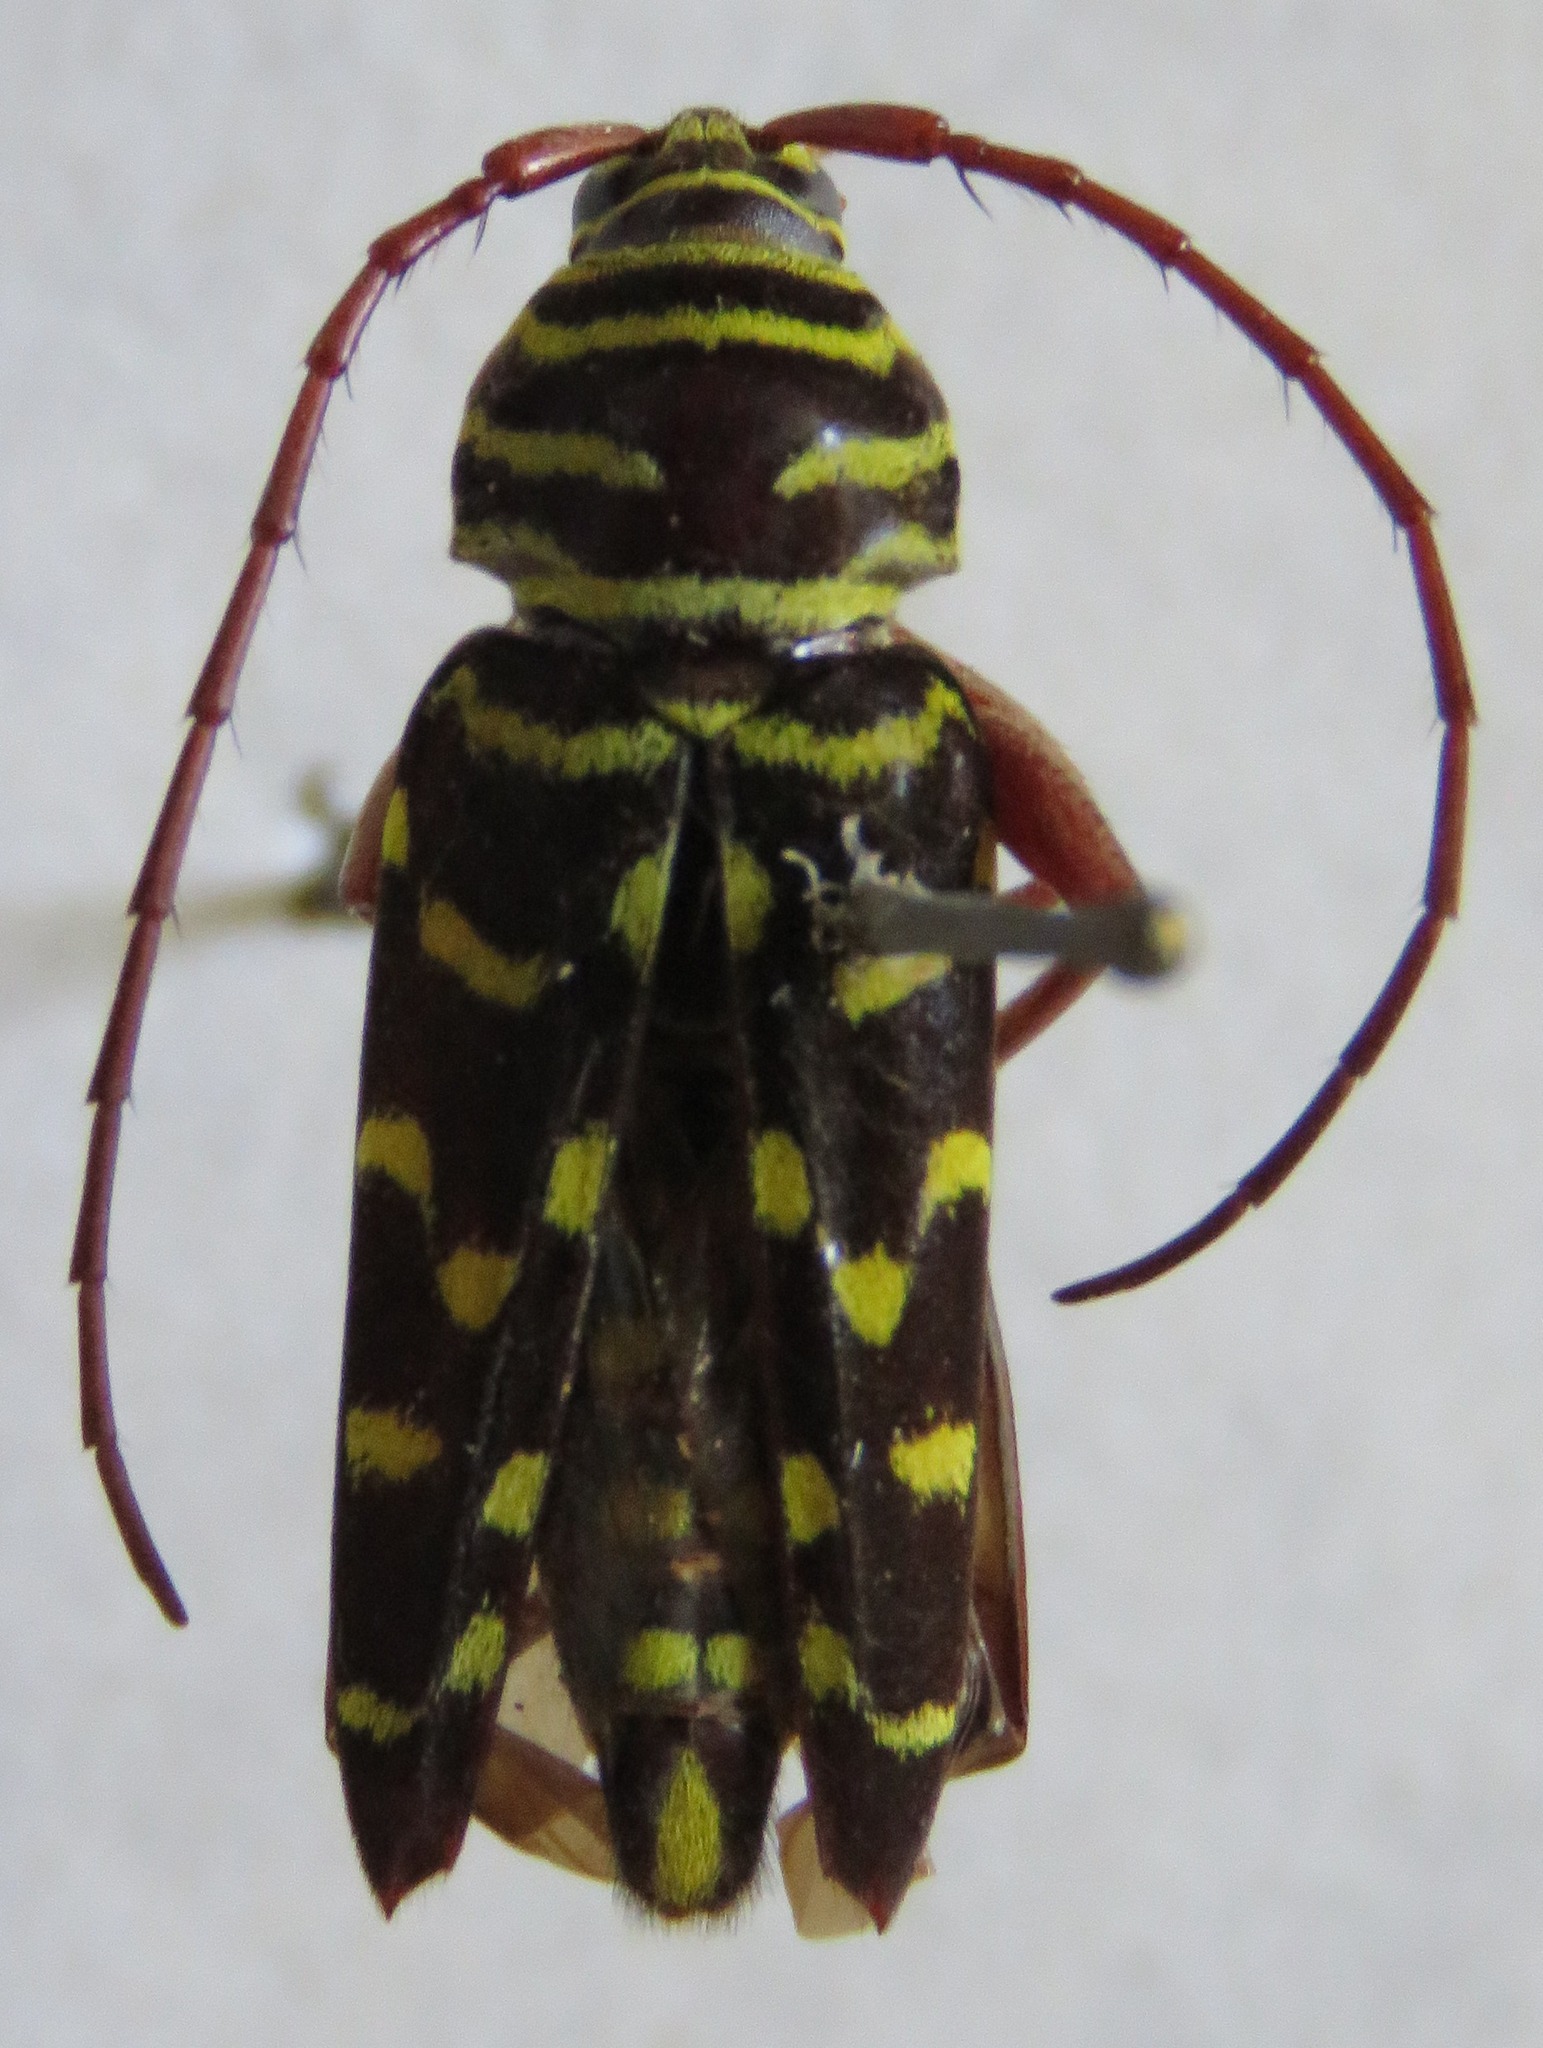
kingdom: Animalia
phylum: Arthropoda
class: Insecta
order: Coleoptera
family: Cerambycidae
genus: Placosternus
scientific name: Placosternus crinicornis
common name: Kiawe round headed borer
